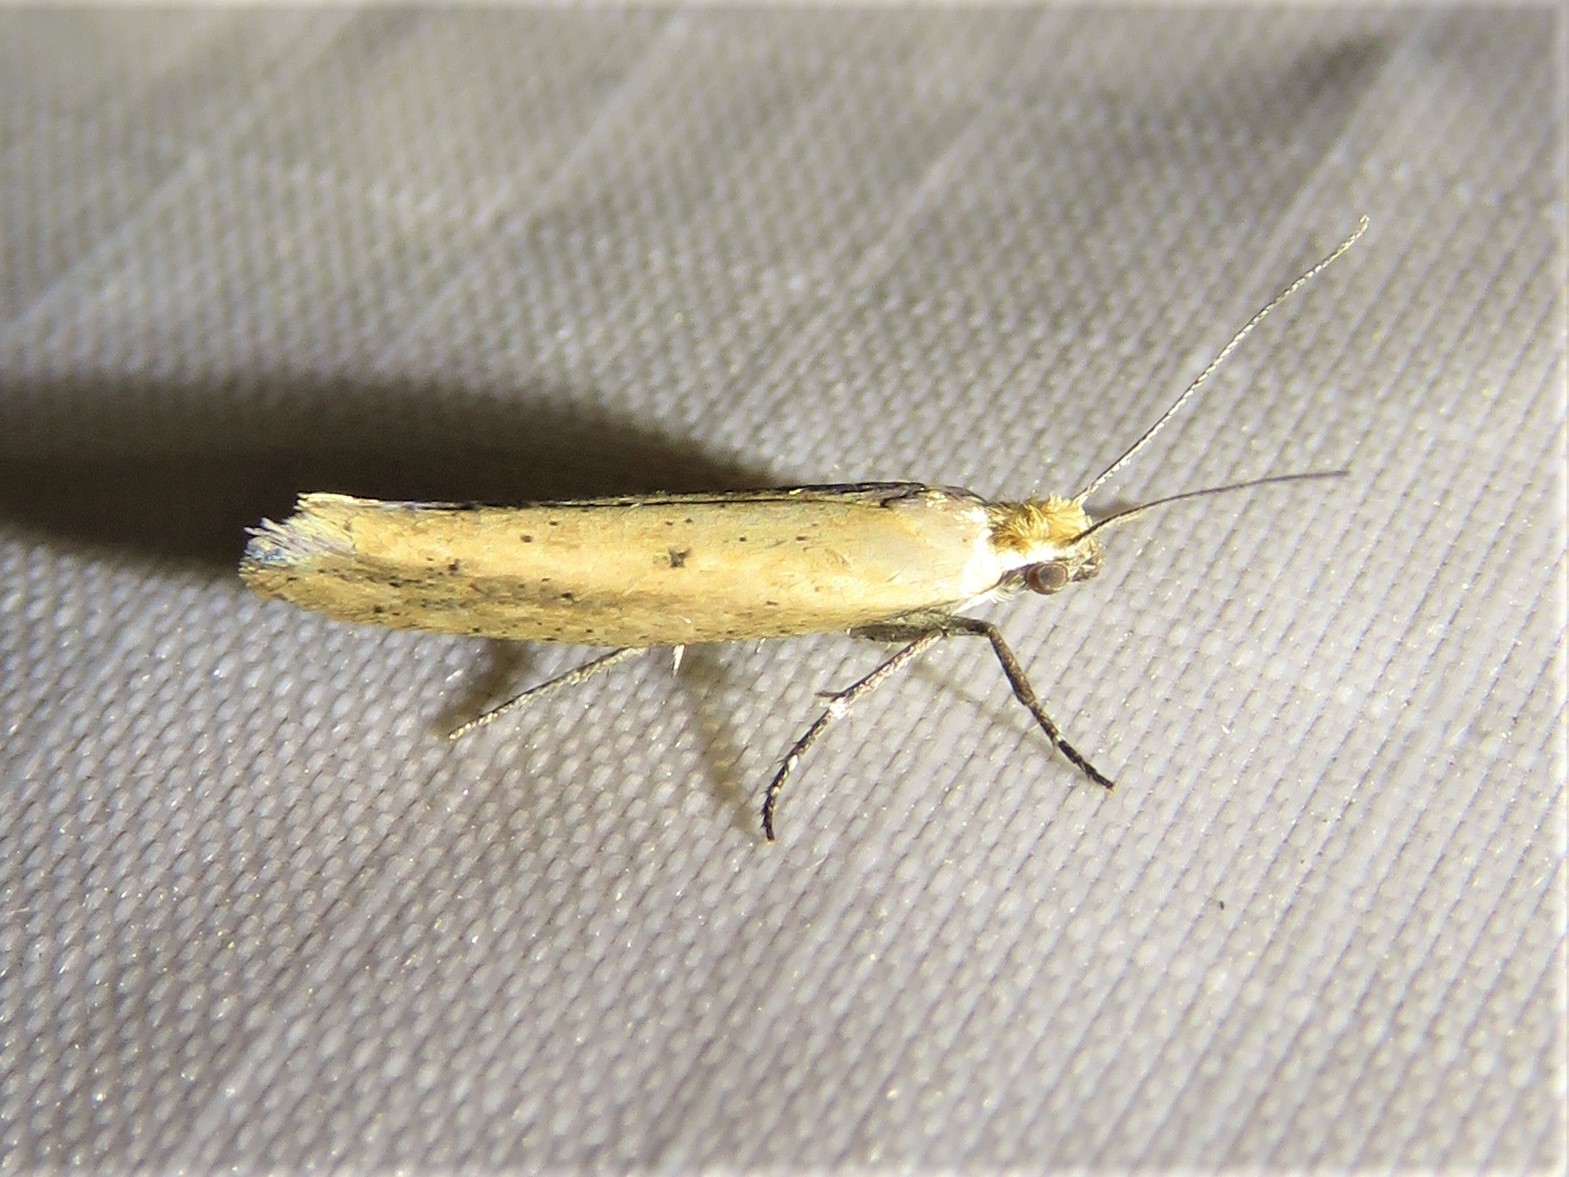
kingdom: Animalia
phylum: Arthropoda
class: Insecta
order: Lepidoptera
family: Ypsolophidae
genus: Ypsolopha
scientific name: Ypsolopha unicipunctella
